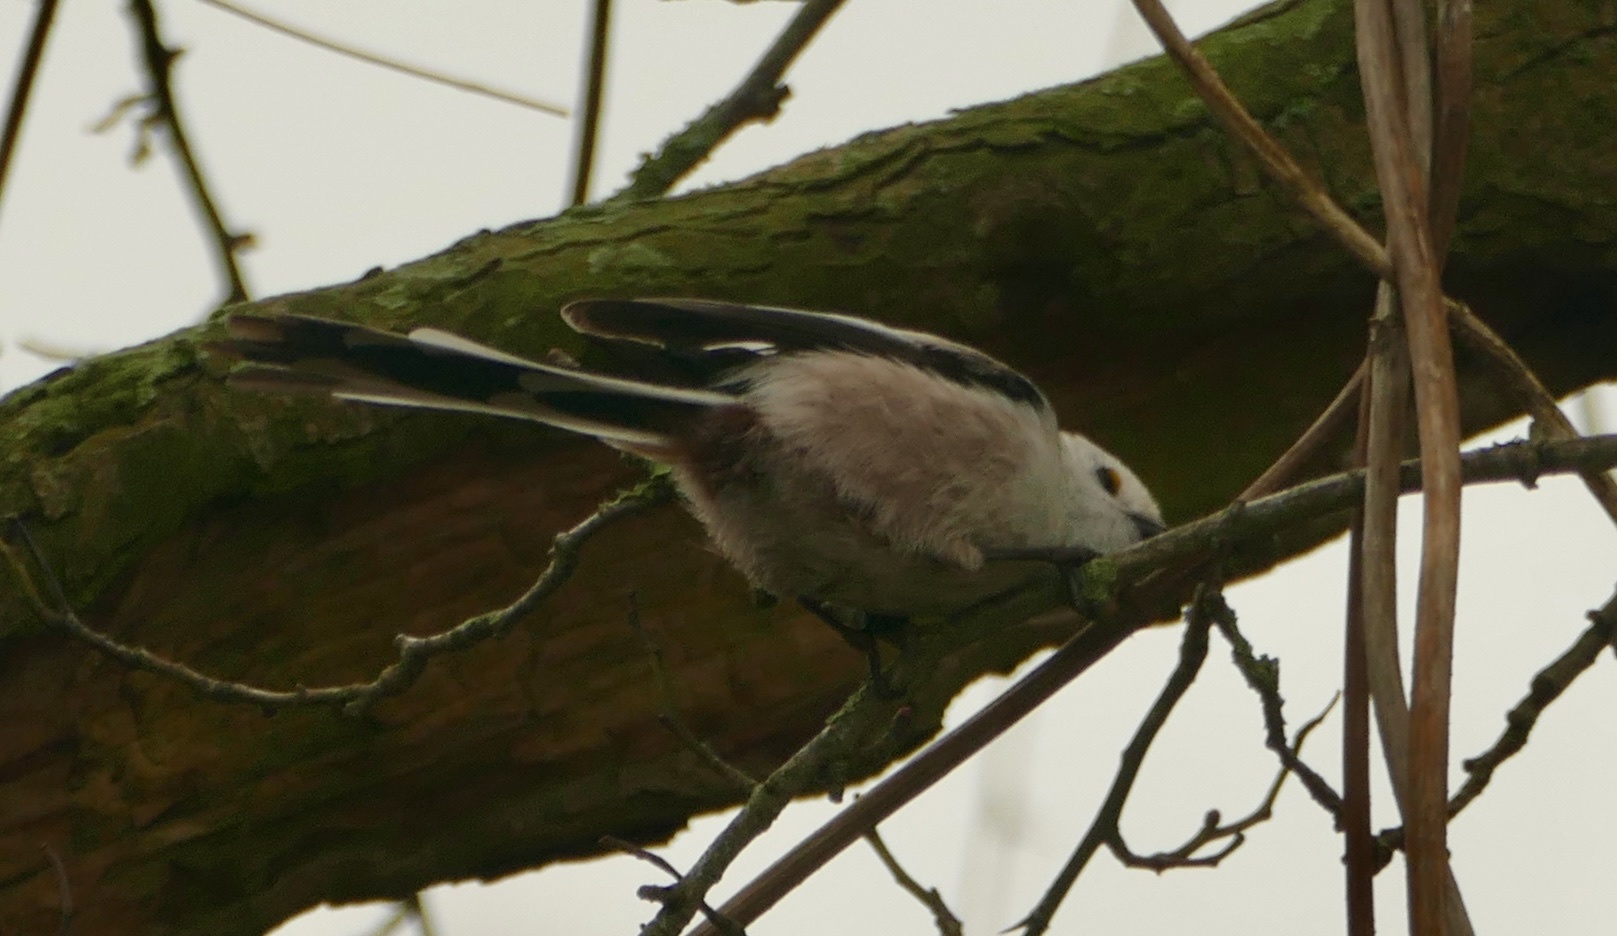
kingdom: Animalia
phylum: Chordata
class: Aves
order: Passeriformes
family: Aegithalidae
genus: Aegithalos
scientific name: Aegithalos caudatus
